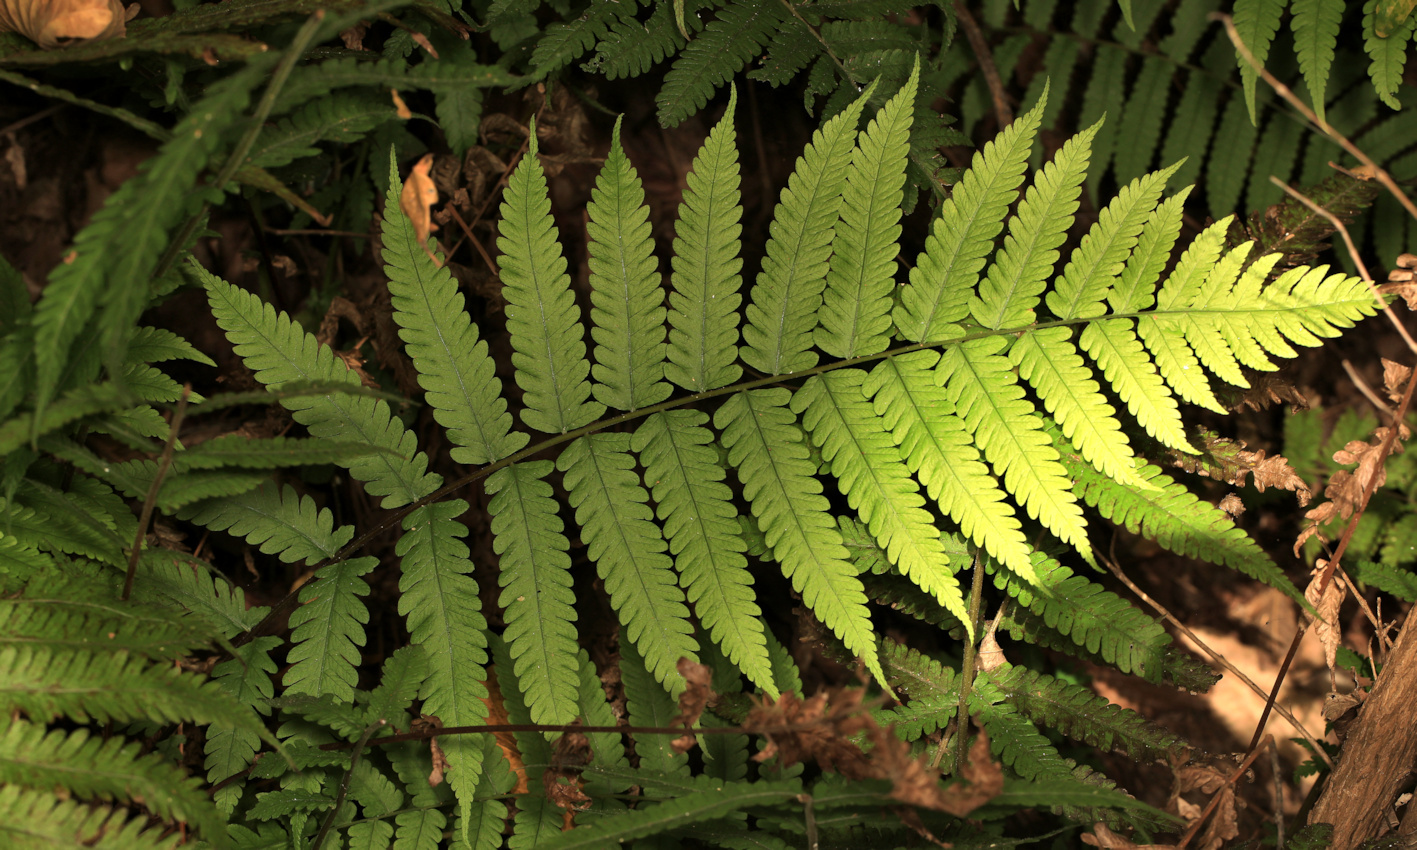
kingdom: Plantae
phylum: Tracheophyta
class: Polypodiopsida
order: Polypodiales
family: Thelypteridaceae
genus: Christella
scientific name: Christella dentata
